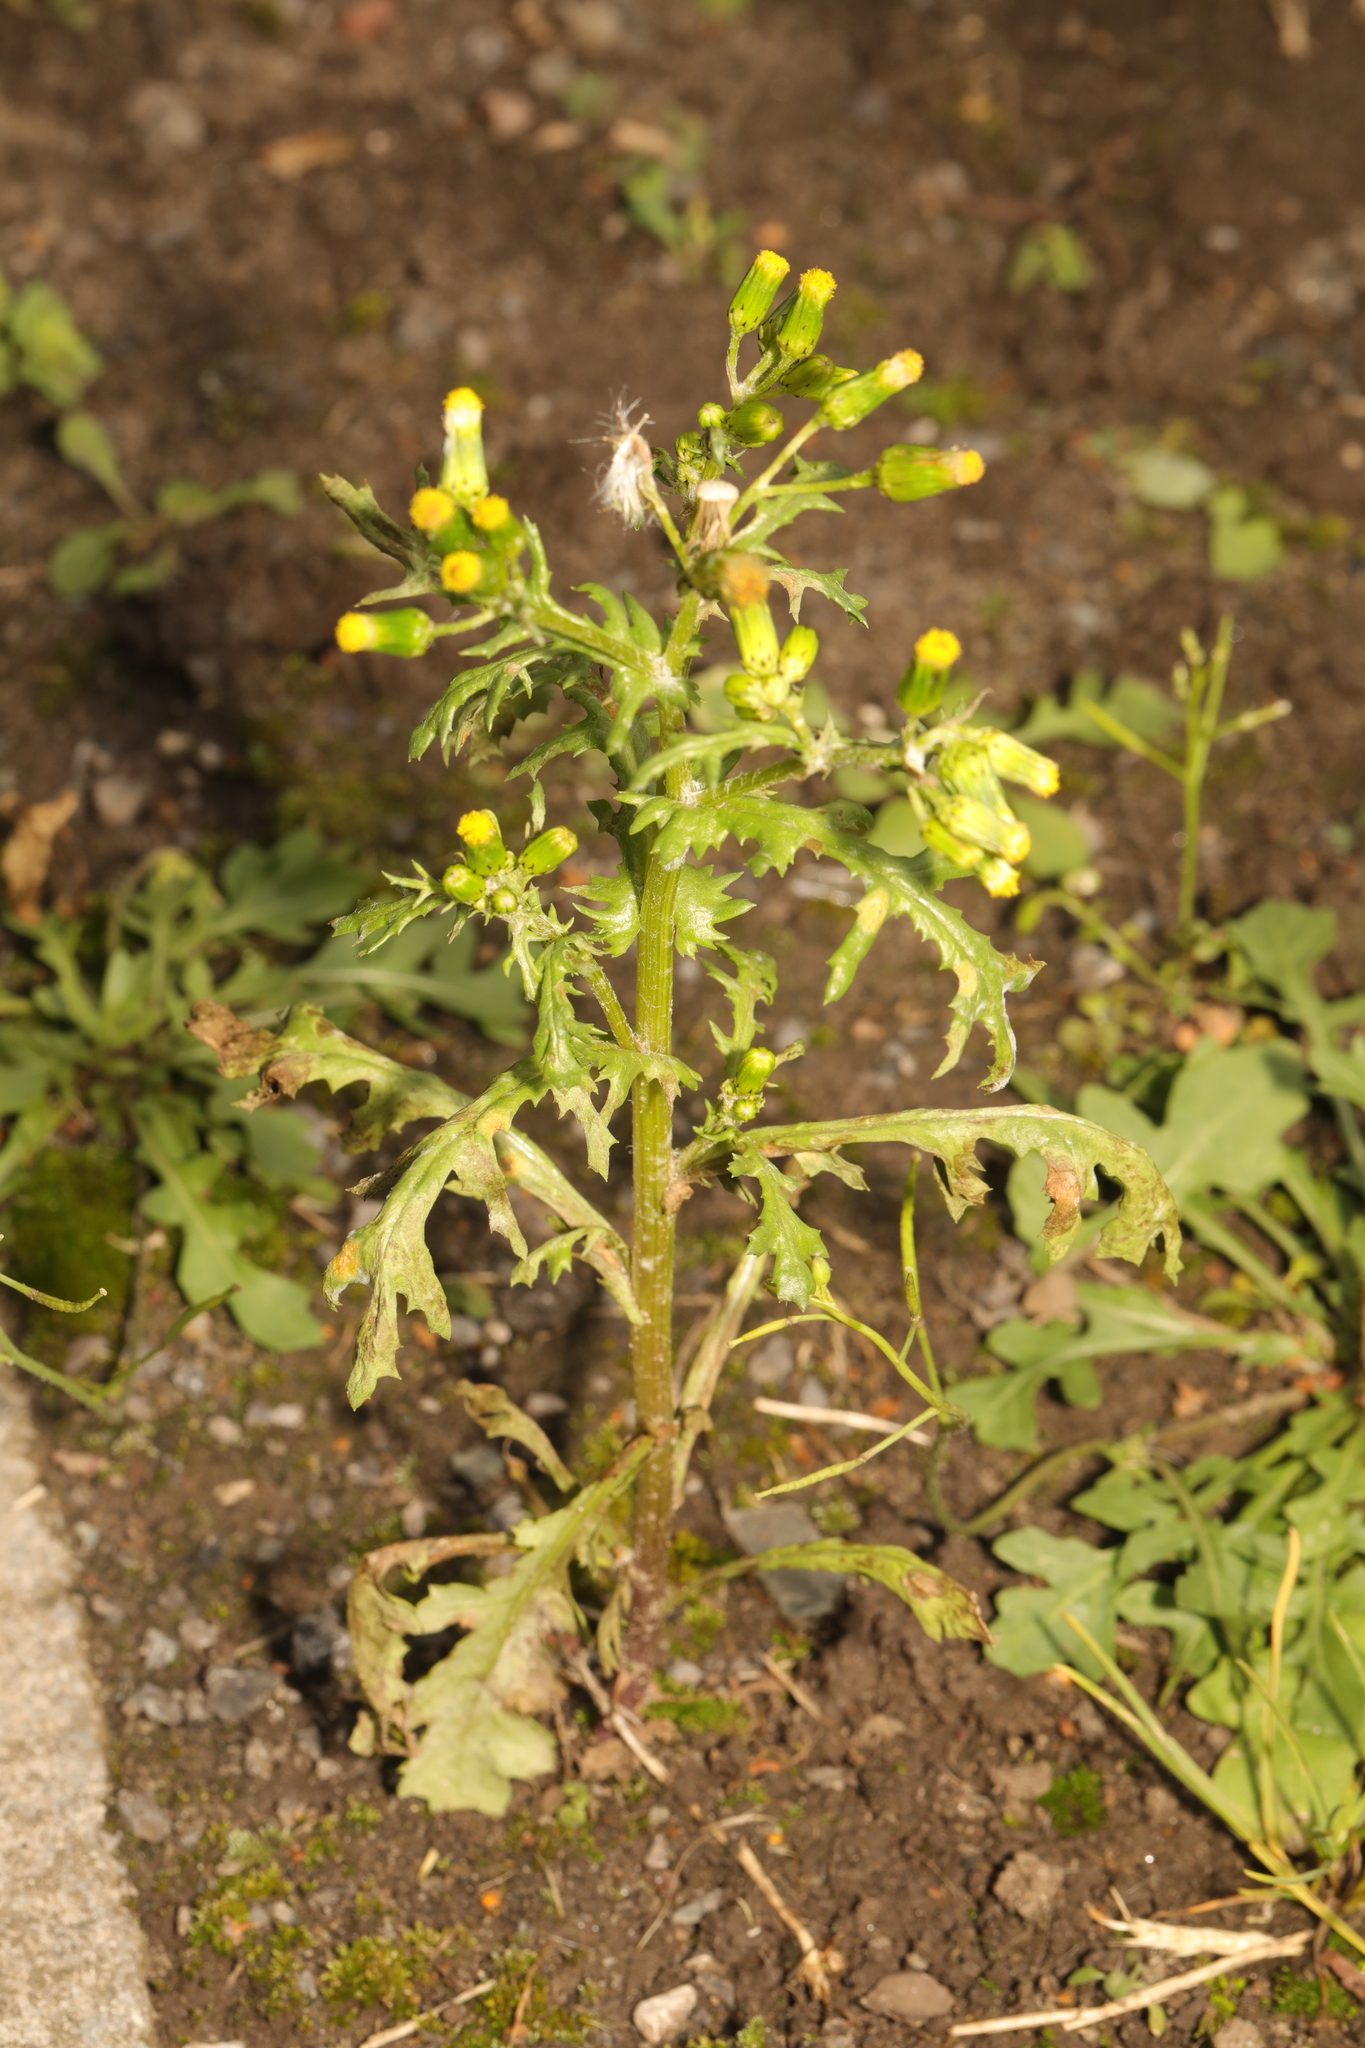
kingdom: Plantae
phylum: Tracheophyta
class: Magnoliopsida
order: Asterales
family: Asteraceae
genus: Senecio
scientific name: Senecio vulgaris
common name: Old-man-in-the-spring
